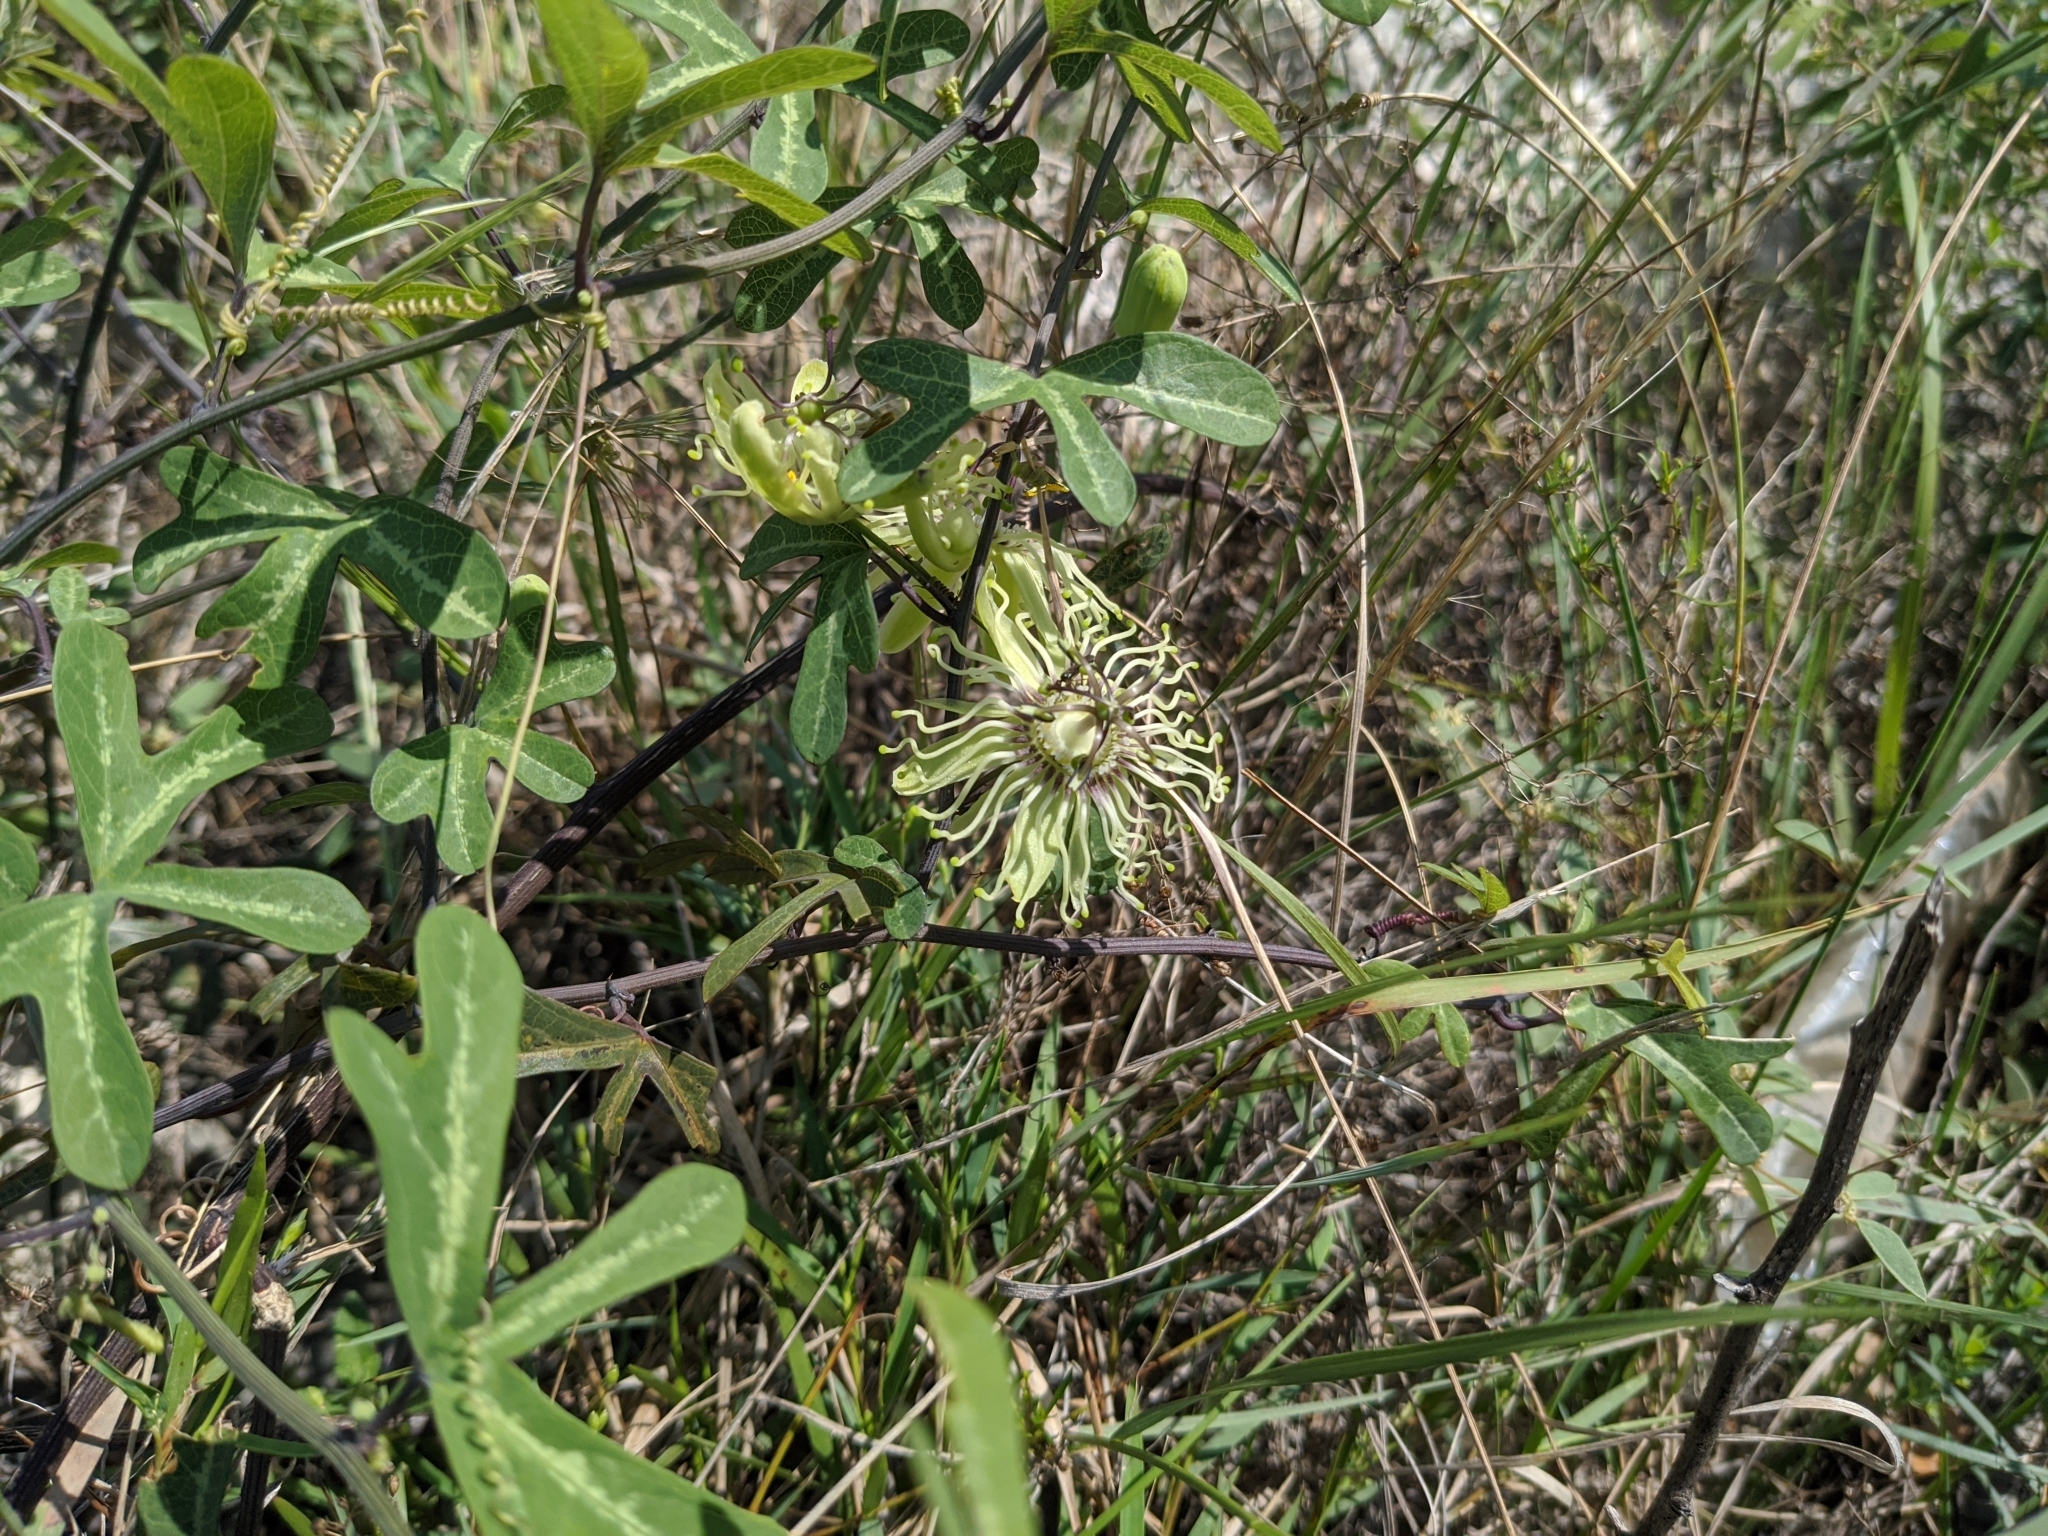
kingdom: Plantae
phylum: Tracheophyta
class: Magnoliopsida
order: Malpighiales
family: Passifloraceae
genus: Passiflora
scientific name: Passiflora affinis
